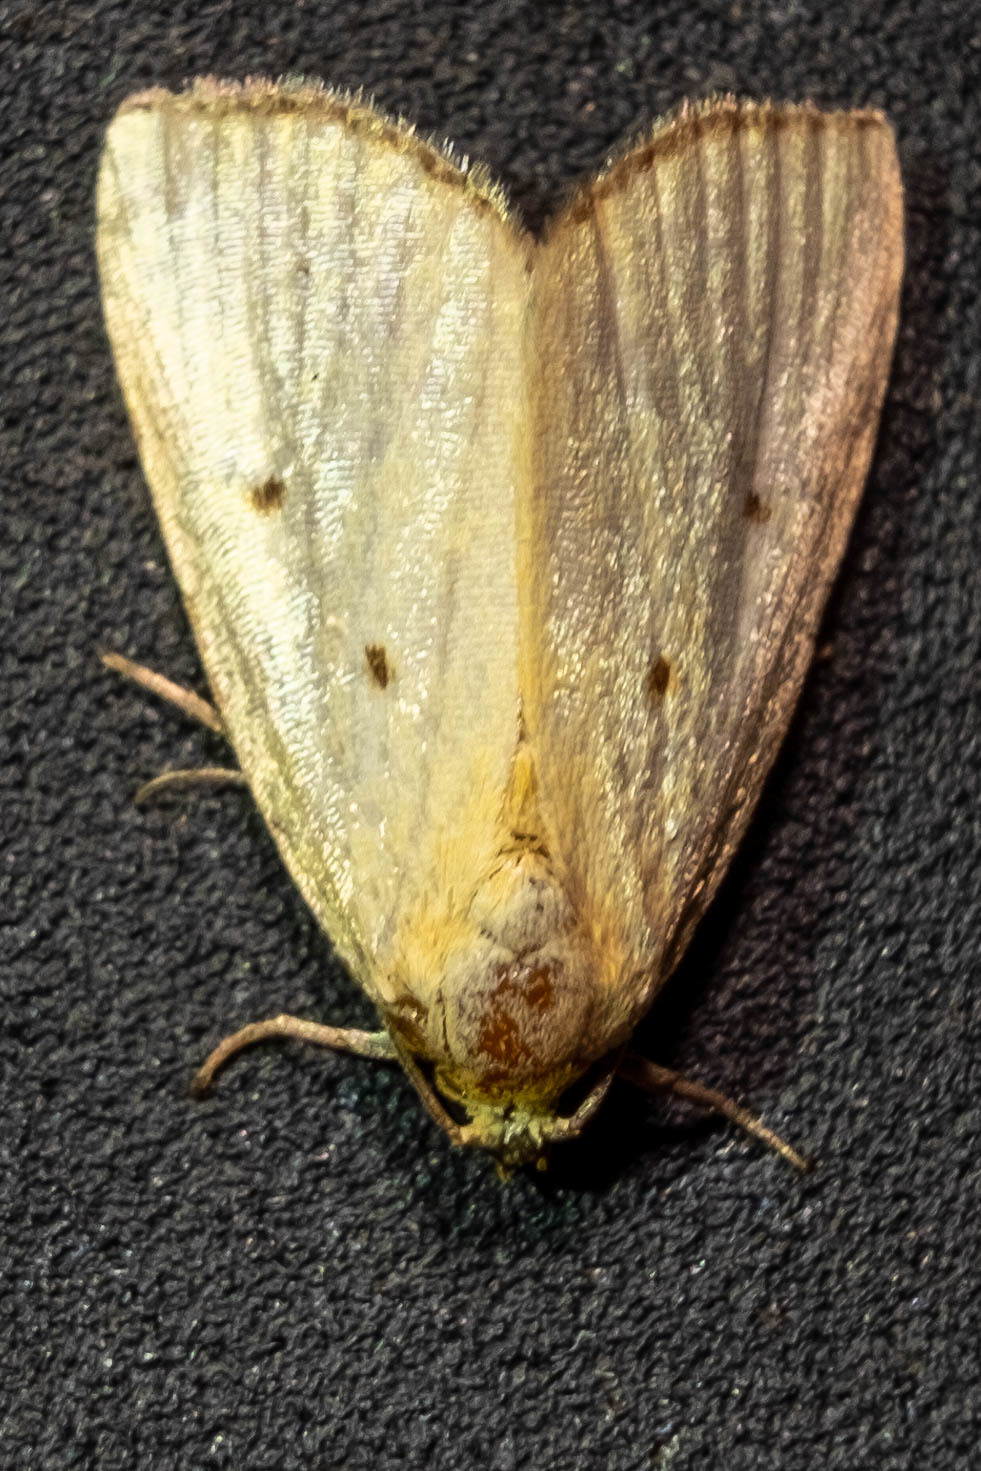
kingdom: Animalia
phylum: Arthropoda
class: Insecta
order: Lepidoptera
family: Noctuidae
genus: Marimatha
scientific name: Marimatha nigrofimbria
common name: Black-bordered lemon moth
